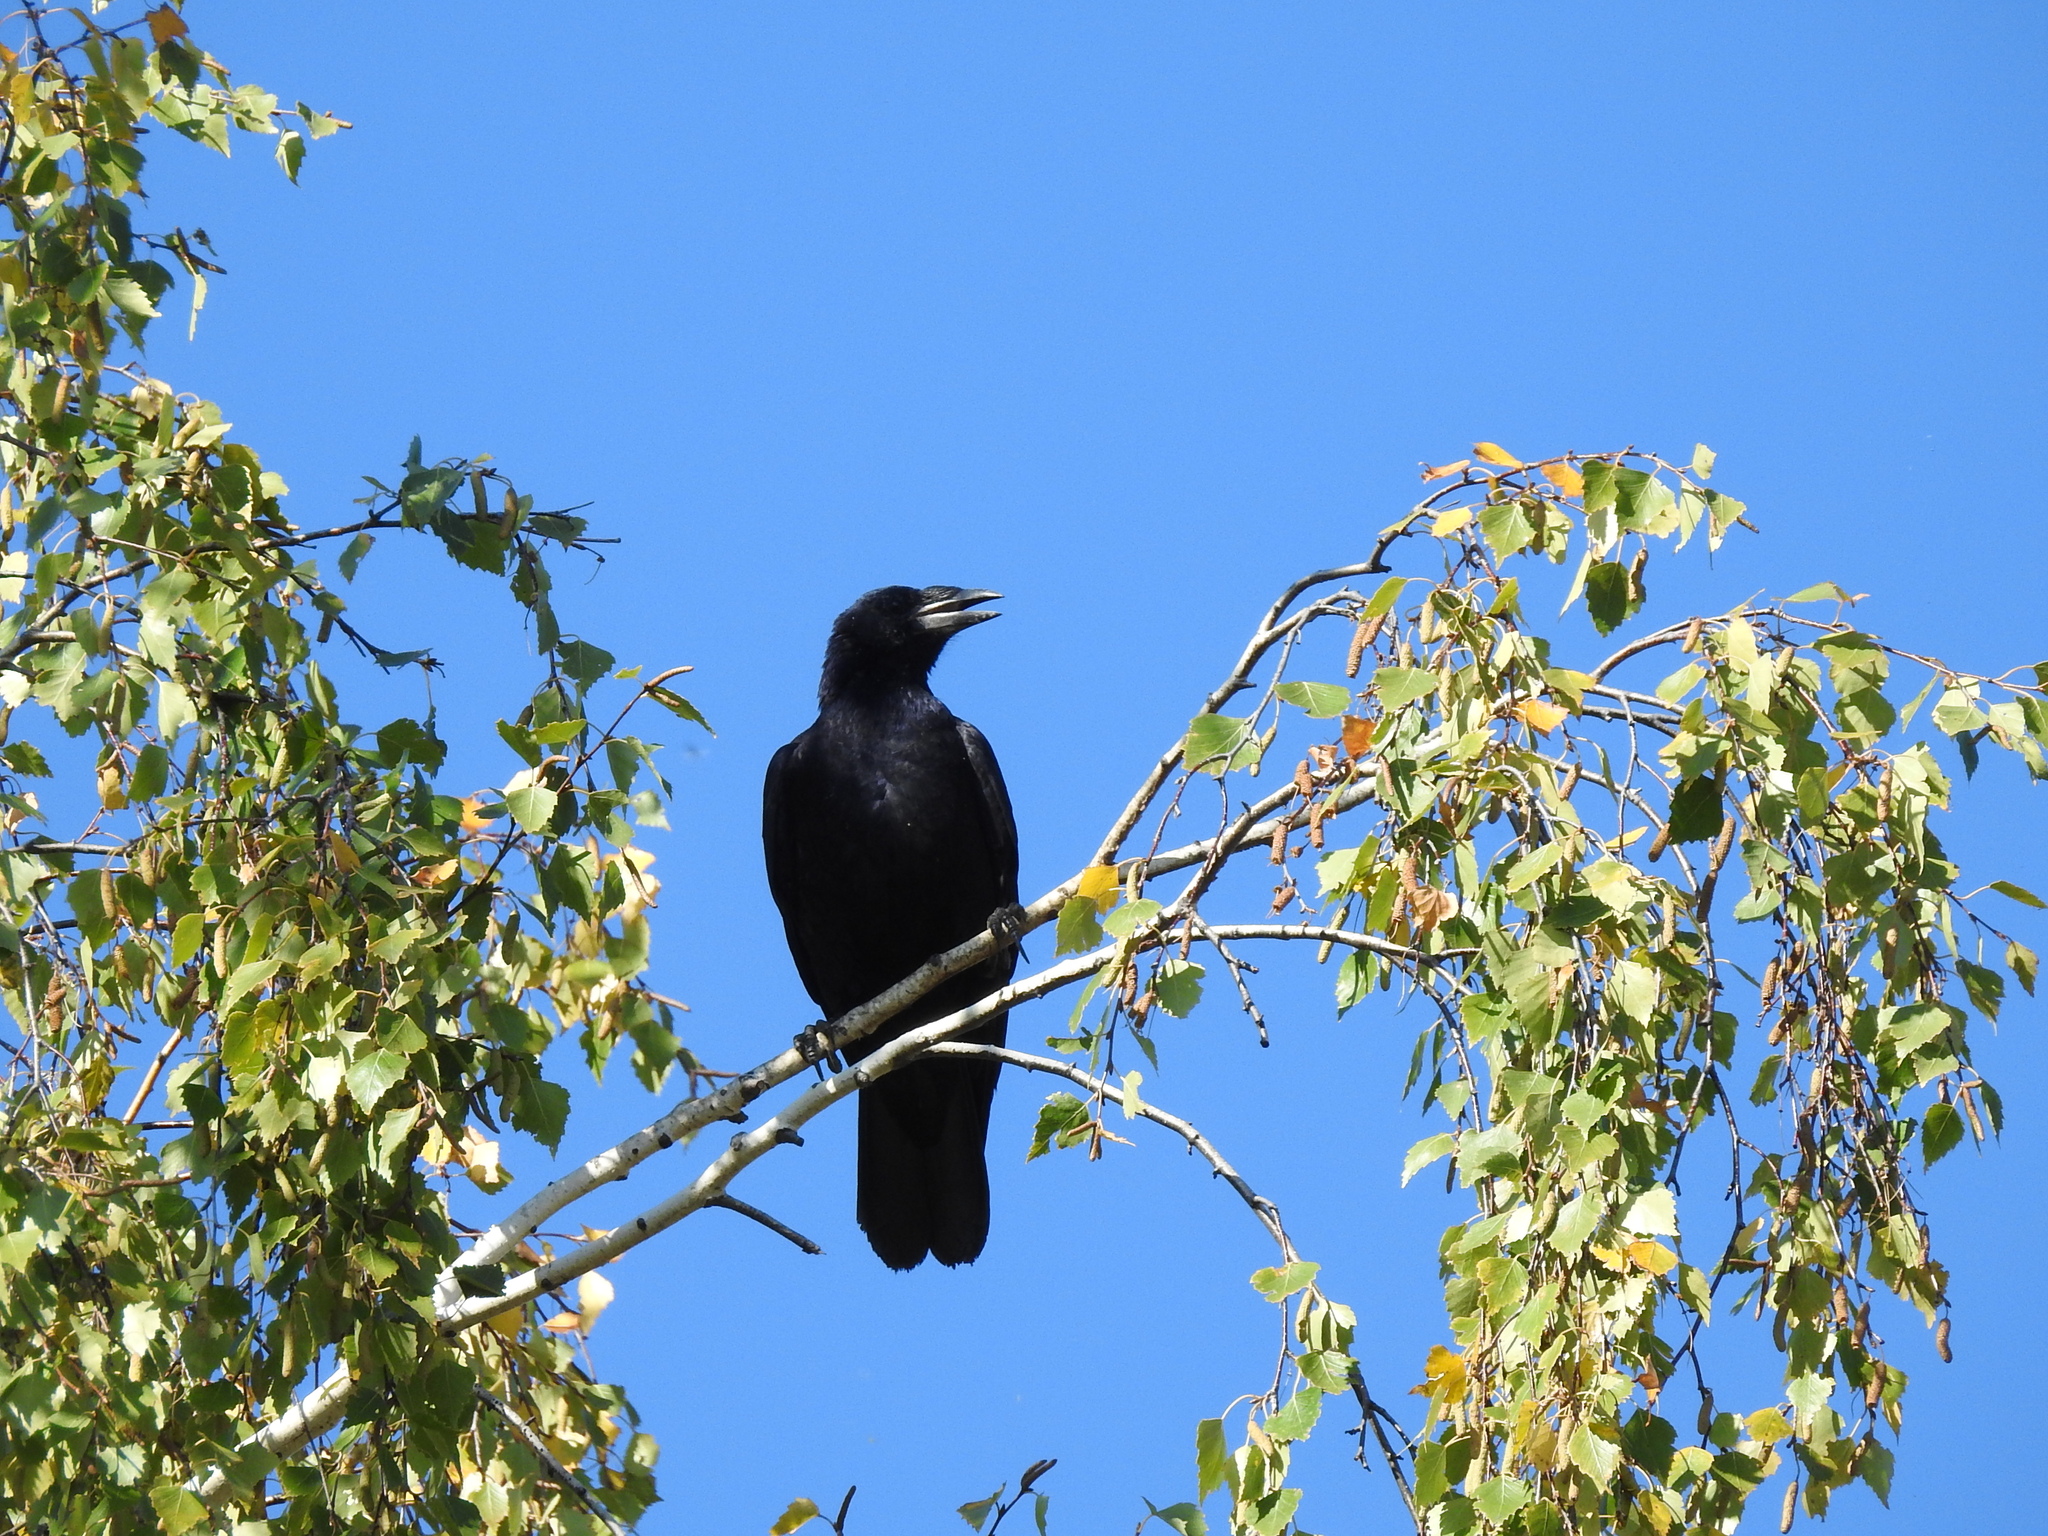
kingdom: Animalia
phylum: Chordata
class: Aves
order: Passeriformes
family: Corvidae
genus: Corvus
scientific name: Corvus frugilegus
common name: Rook
